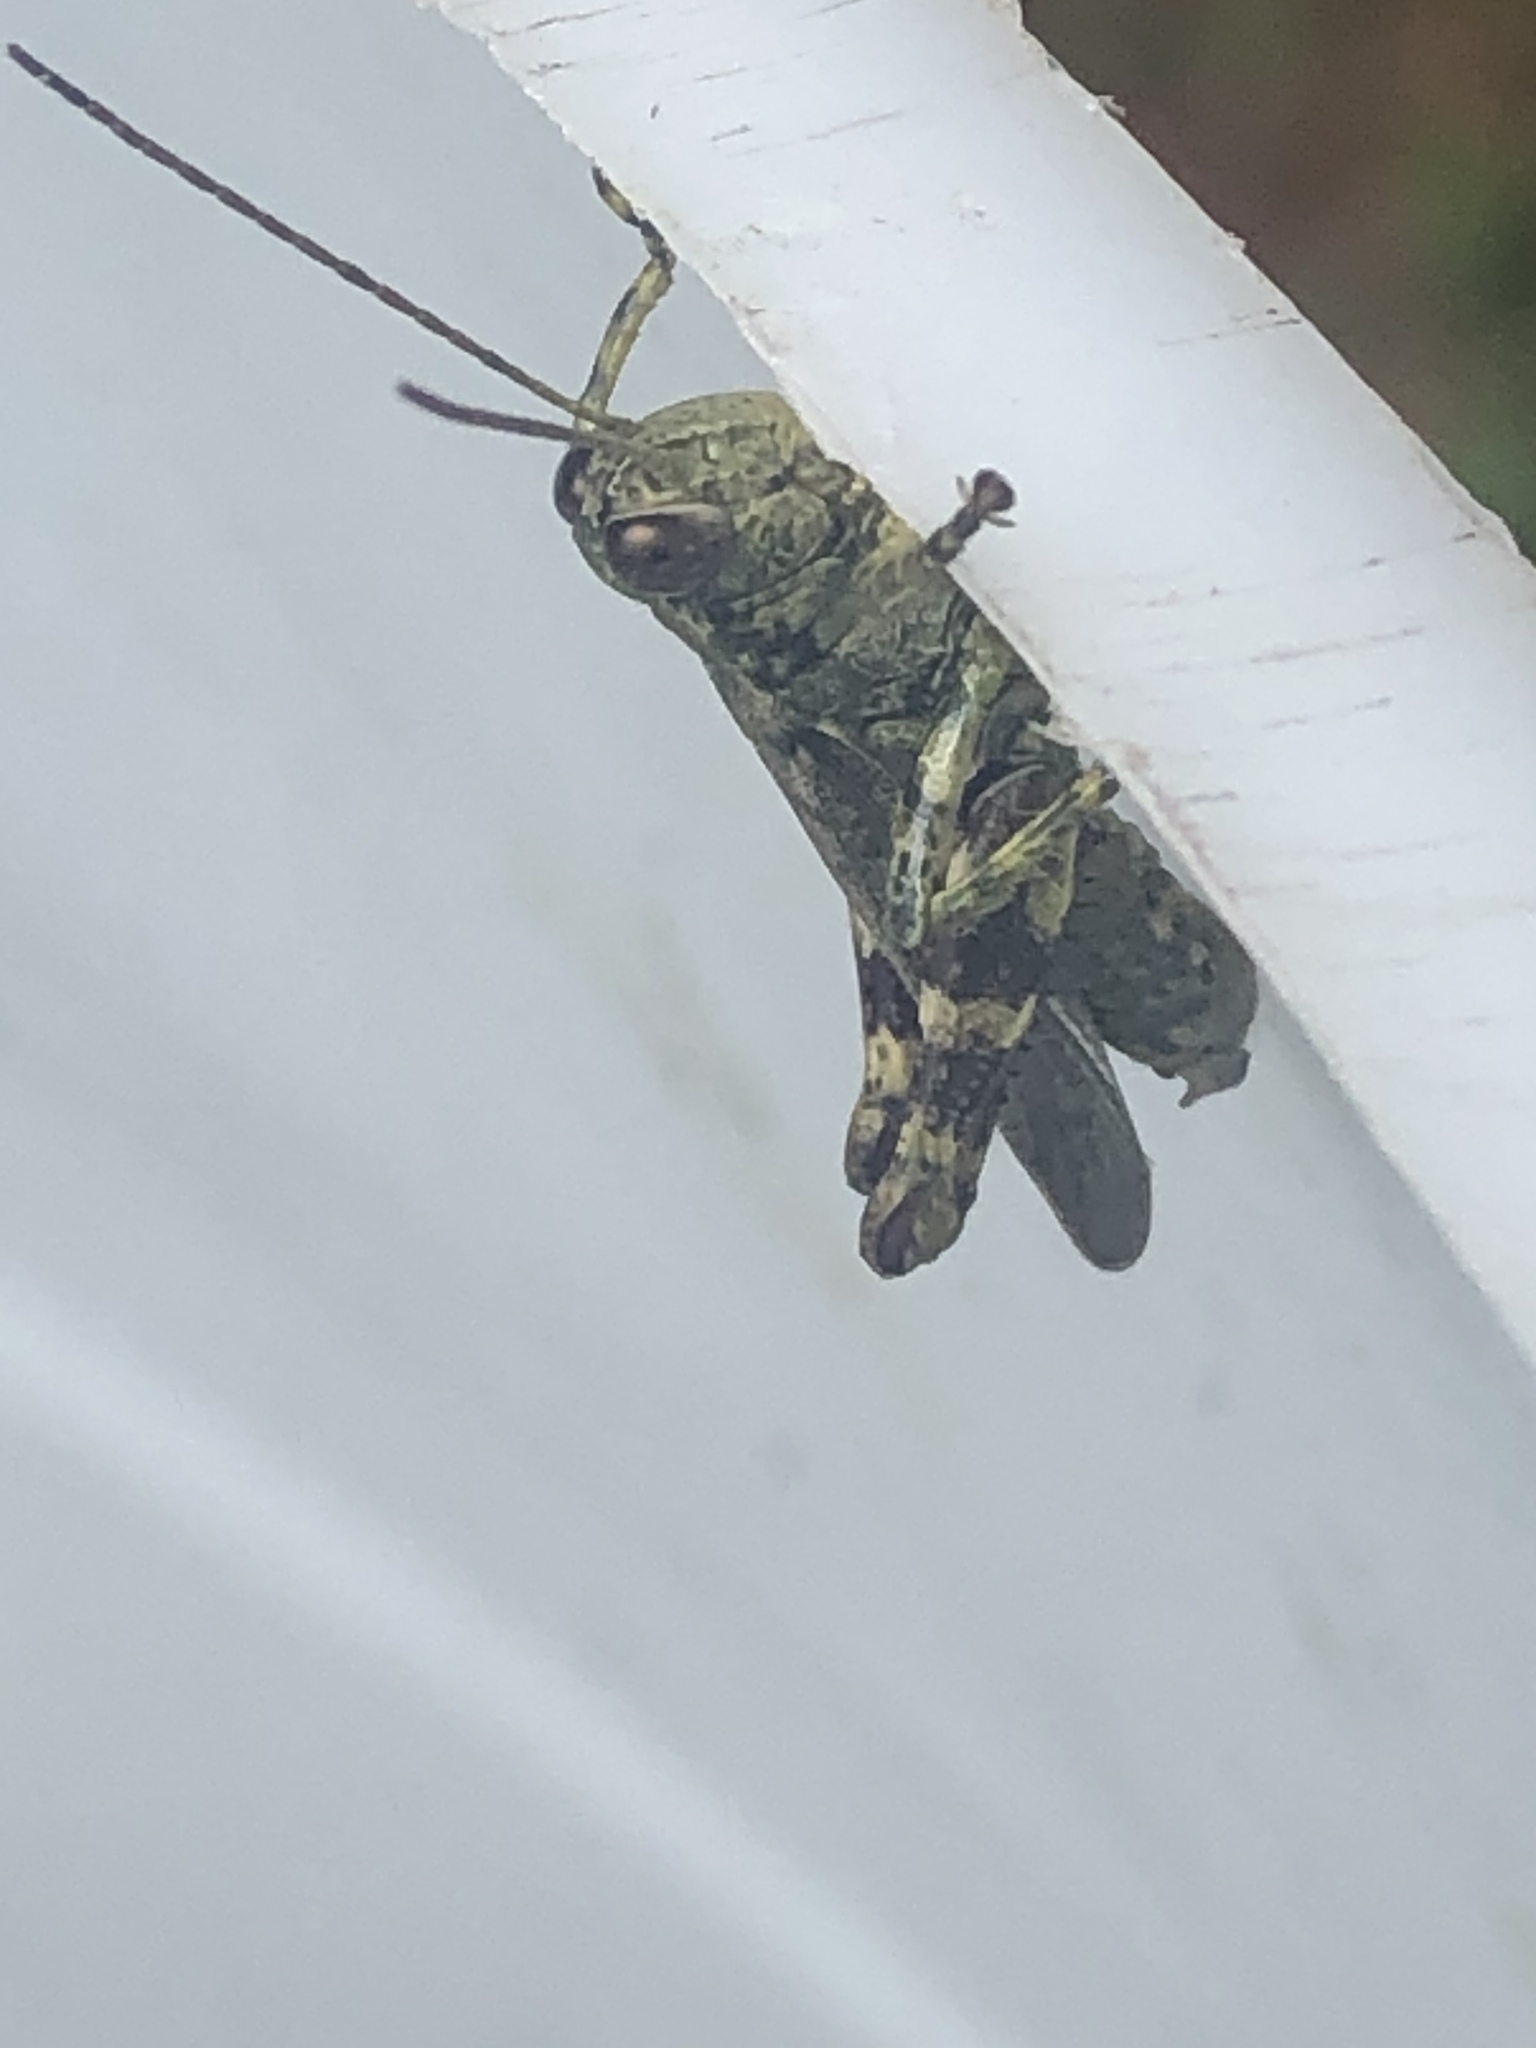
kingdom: Animalia
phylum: Arthropoda
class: Insecta
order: Orthoptera
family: Acrididae
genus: Melanoplus
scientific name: Melanoplus punctulatus
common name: Pine-tree spur-throat grasshopper
